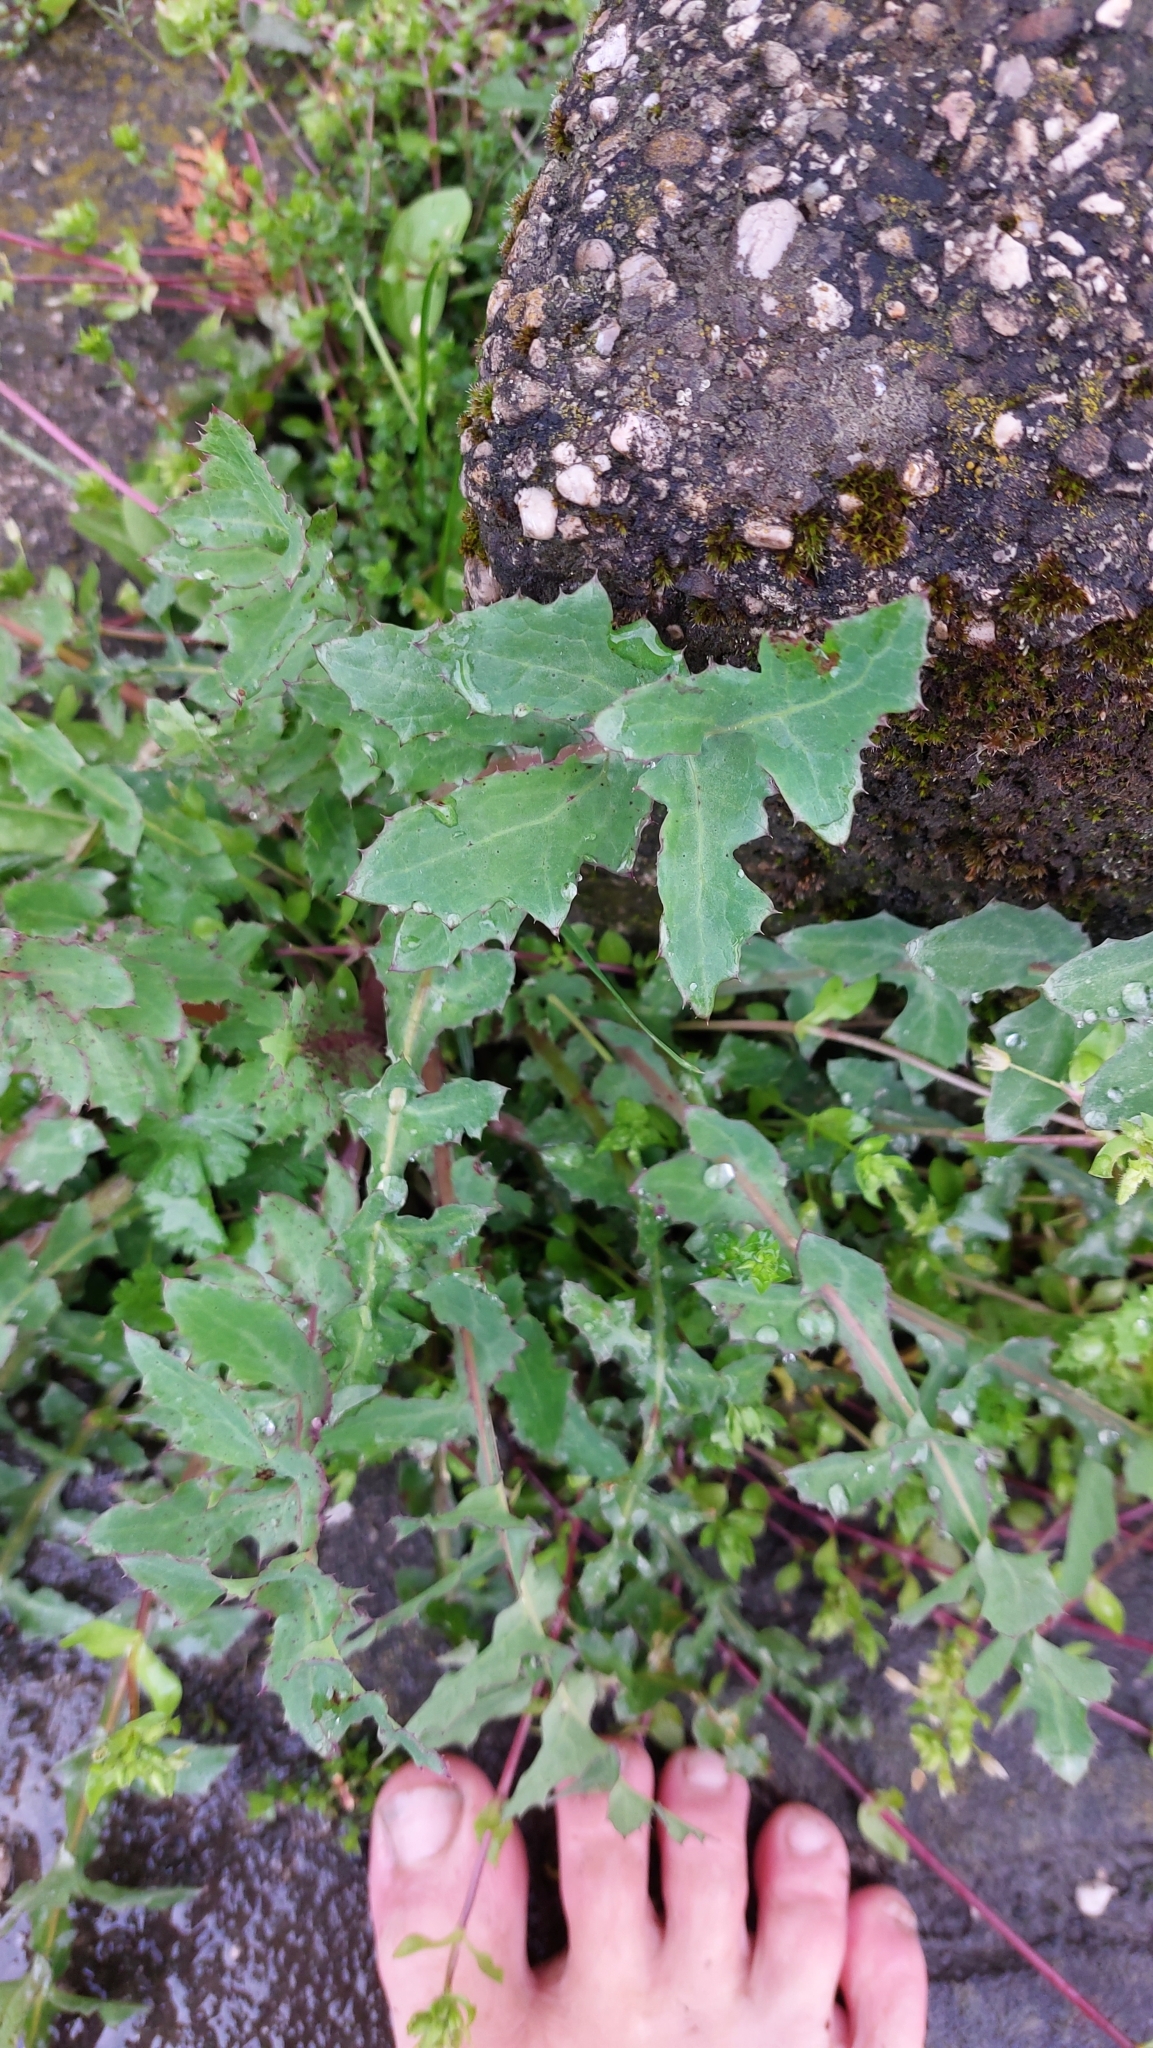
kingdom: Plantae
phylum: Tracheophyta
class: Magnoliopsida
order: Asterales
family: Asteraceae
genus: Sonchus
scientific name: Sonchus oleraceus
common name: Common sowthistle
